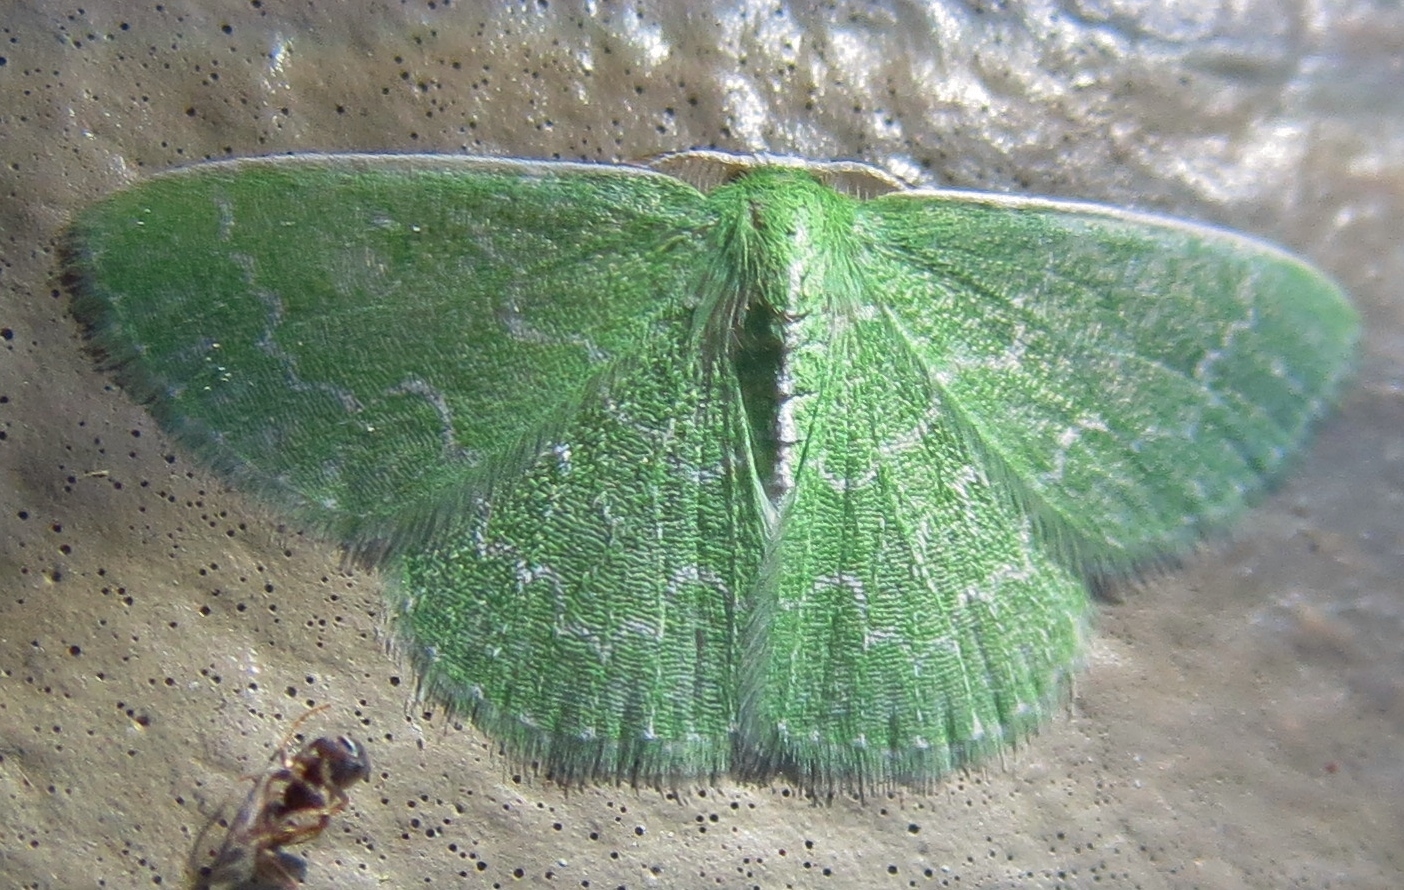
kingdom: Animalia
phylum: Arthropoda
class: Insecta
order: Lepidoptera
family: Geometridae
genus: Synchlora
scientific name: Synchlora frondaria
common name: Southern emerald
